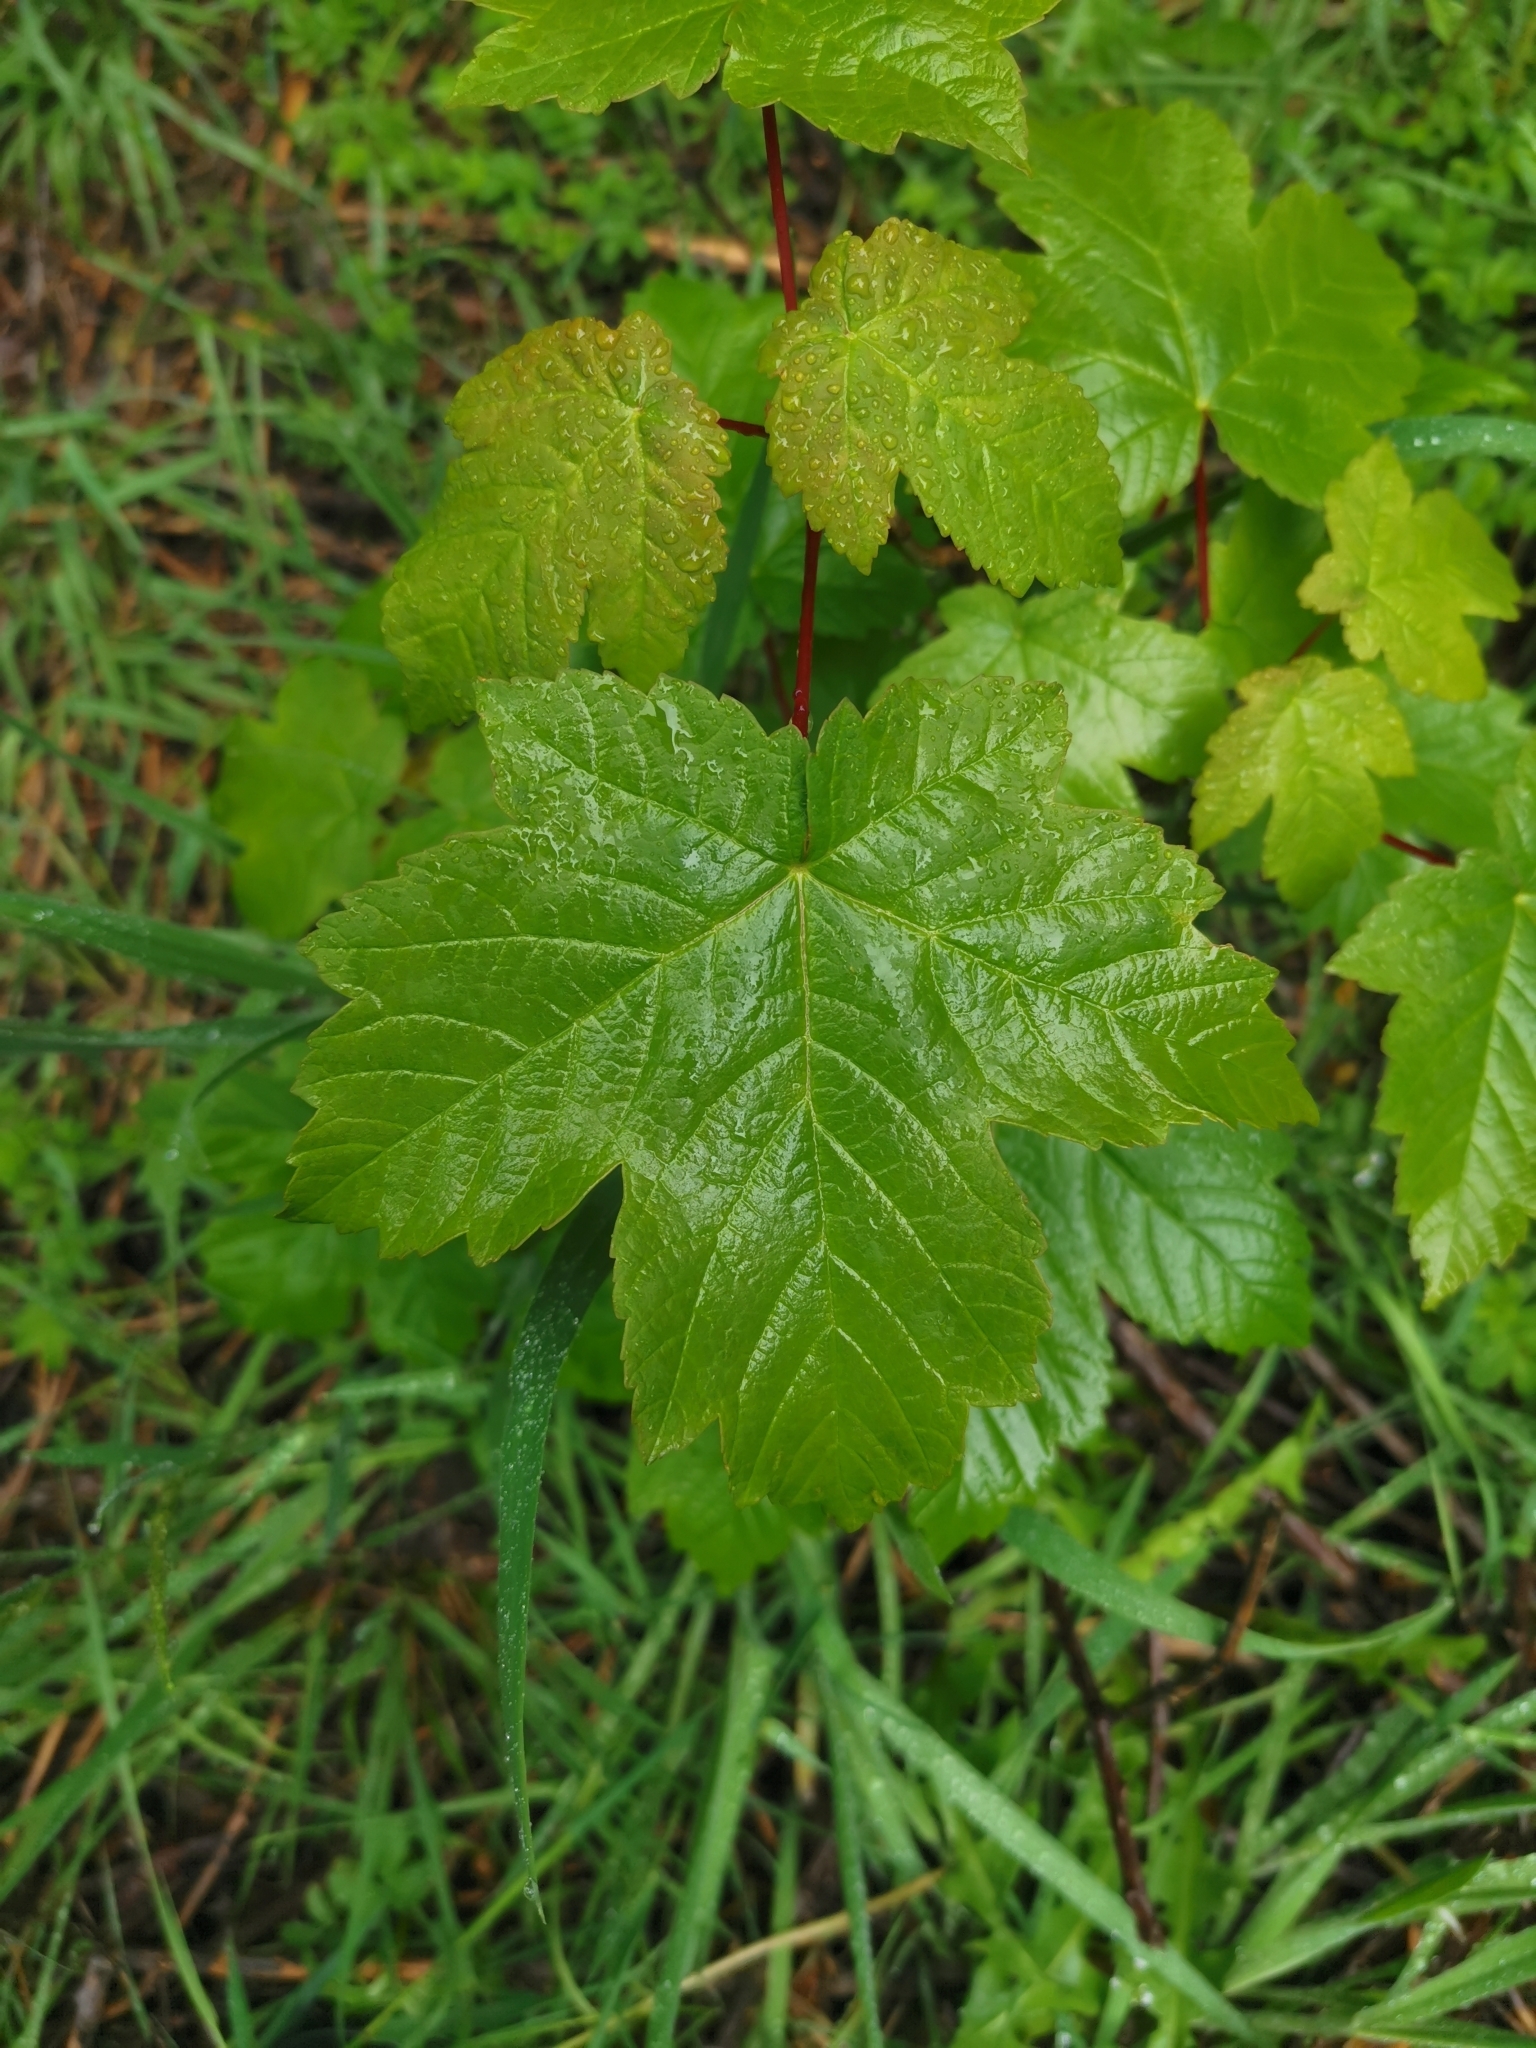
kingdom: Plantae
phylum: Tracheophyta
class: Magnoliopsida
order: Sapindales
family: Sapindaceae
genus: Acer
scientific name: Acer pseudoplatanus
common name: Sycamore
